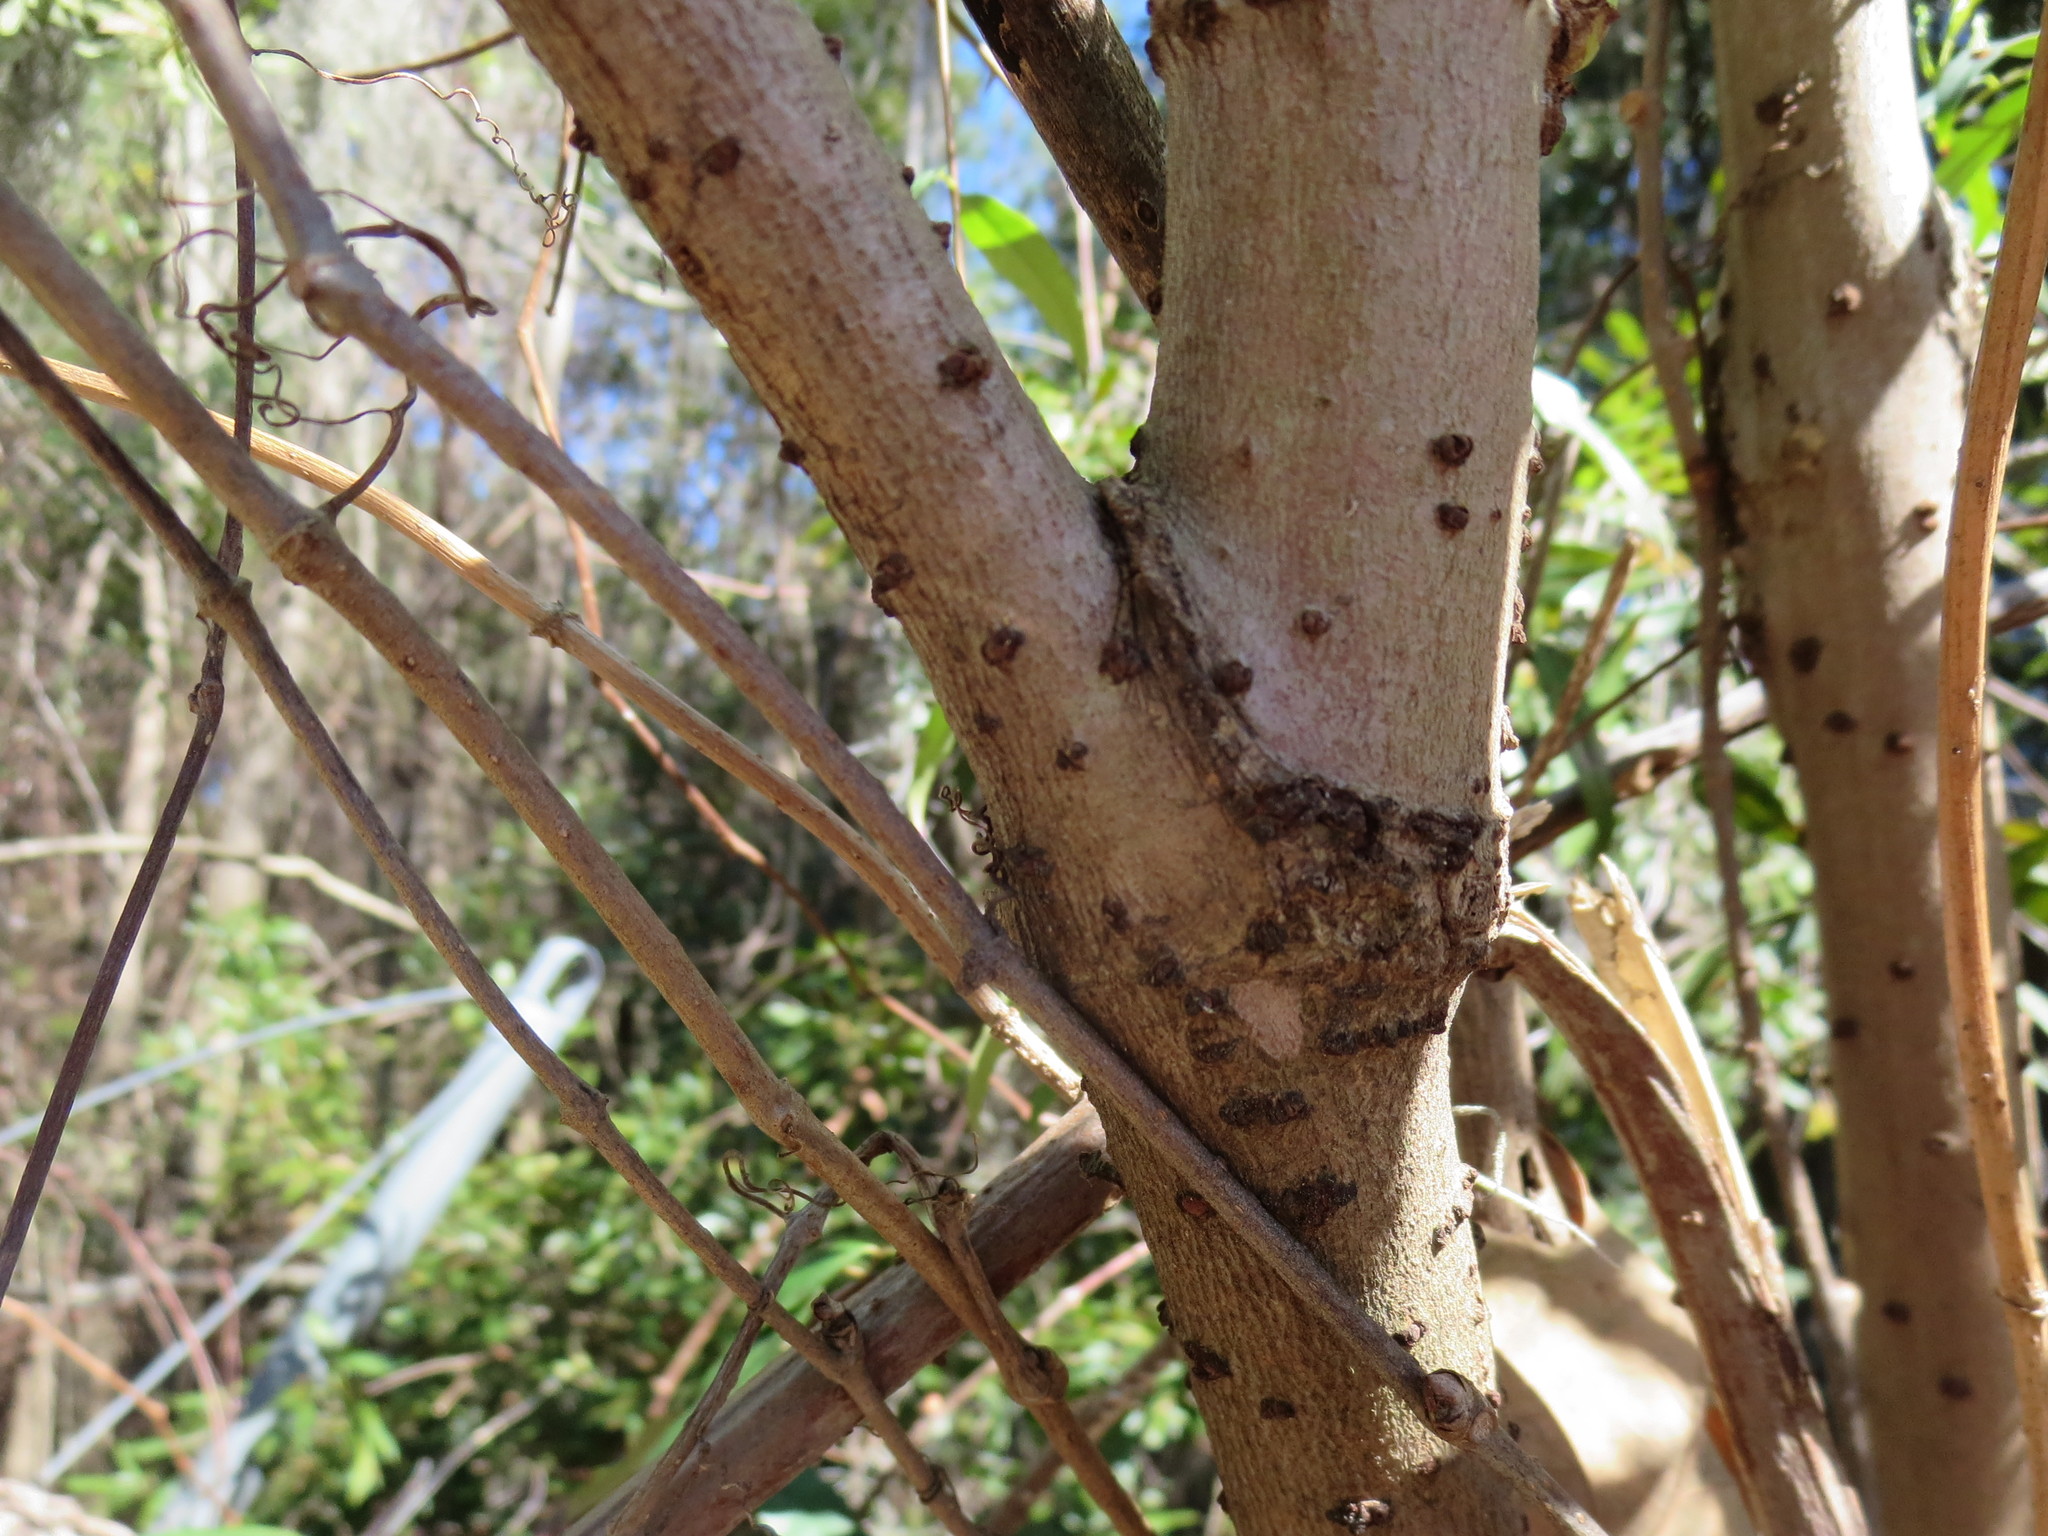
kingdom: Plantae
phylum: Tracheophyta
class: Magnoliopsida
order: Dipsacales
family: Viburnaceae
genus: Sambucus
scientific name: Sambucus canadensis
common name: American elder
